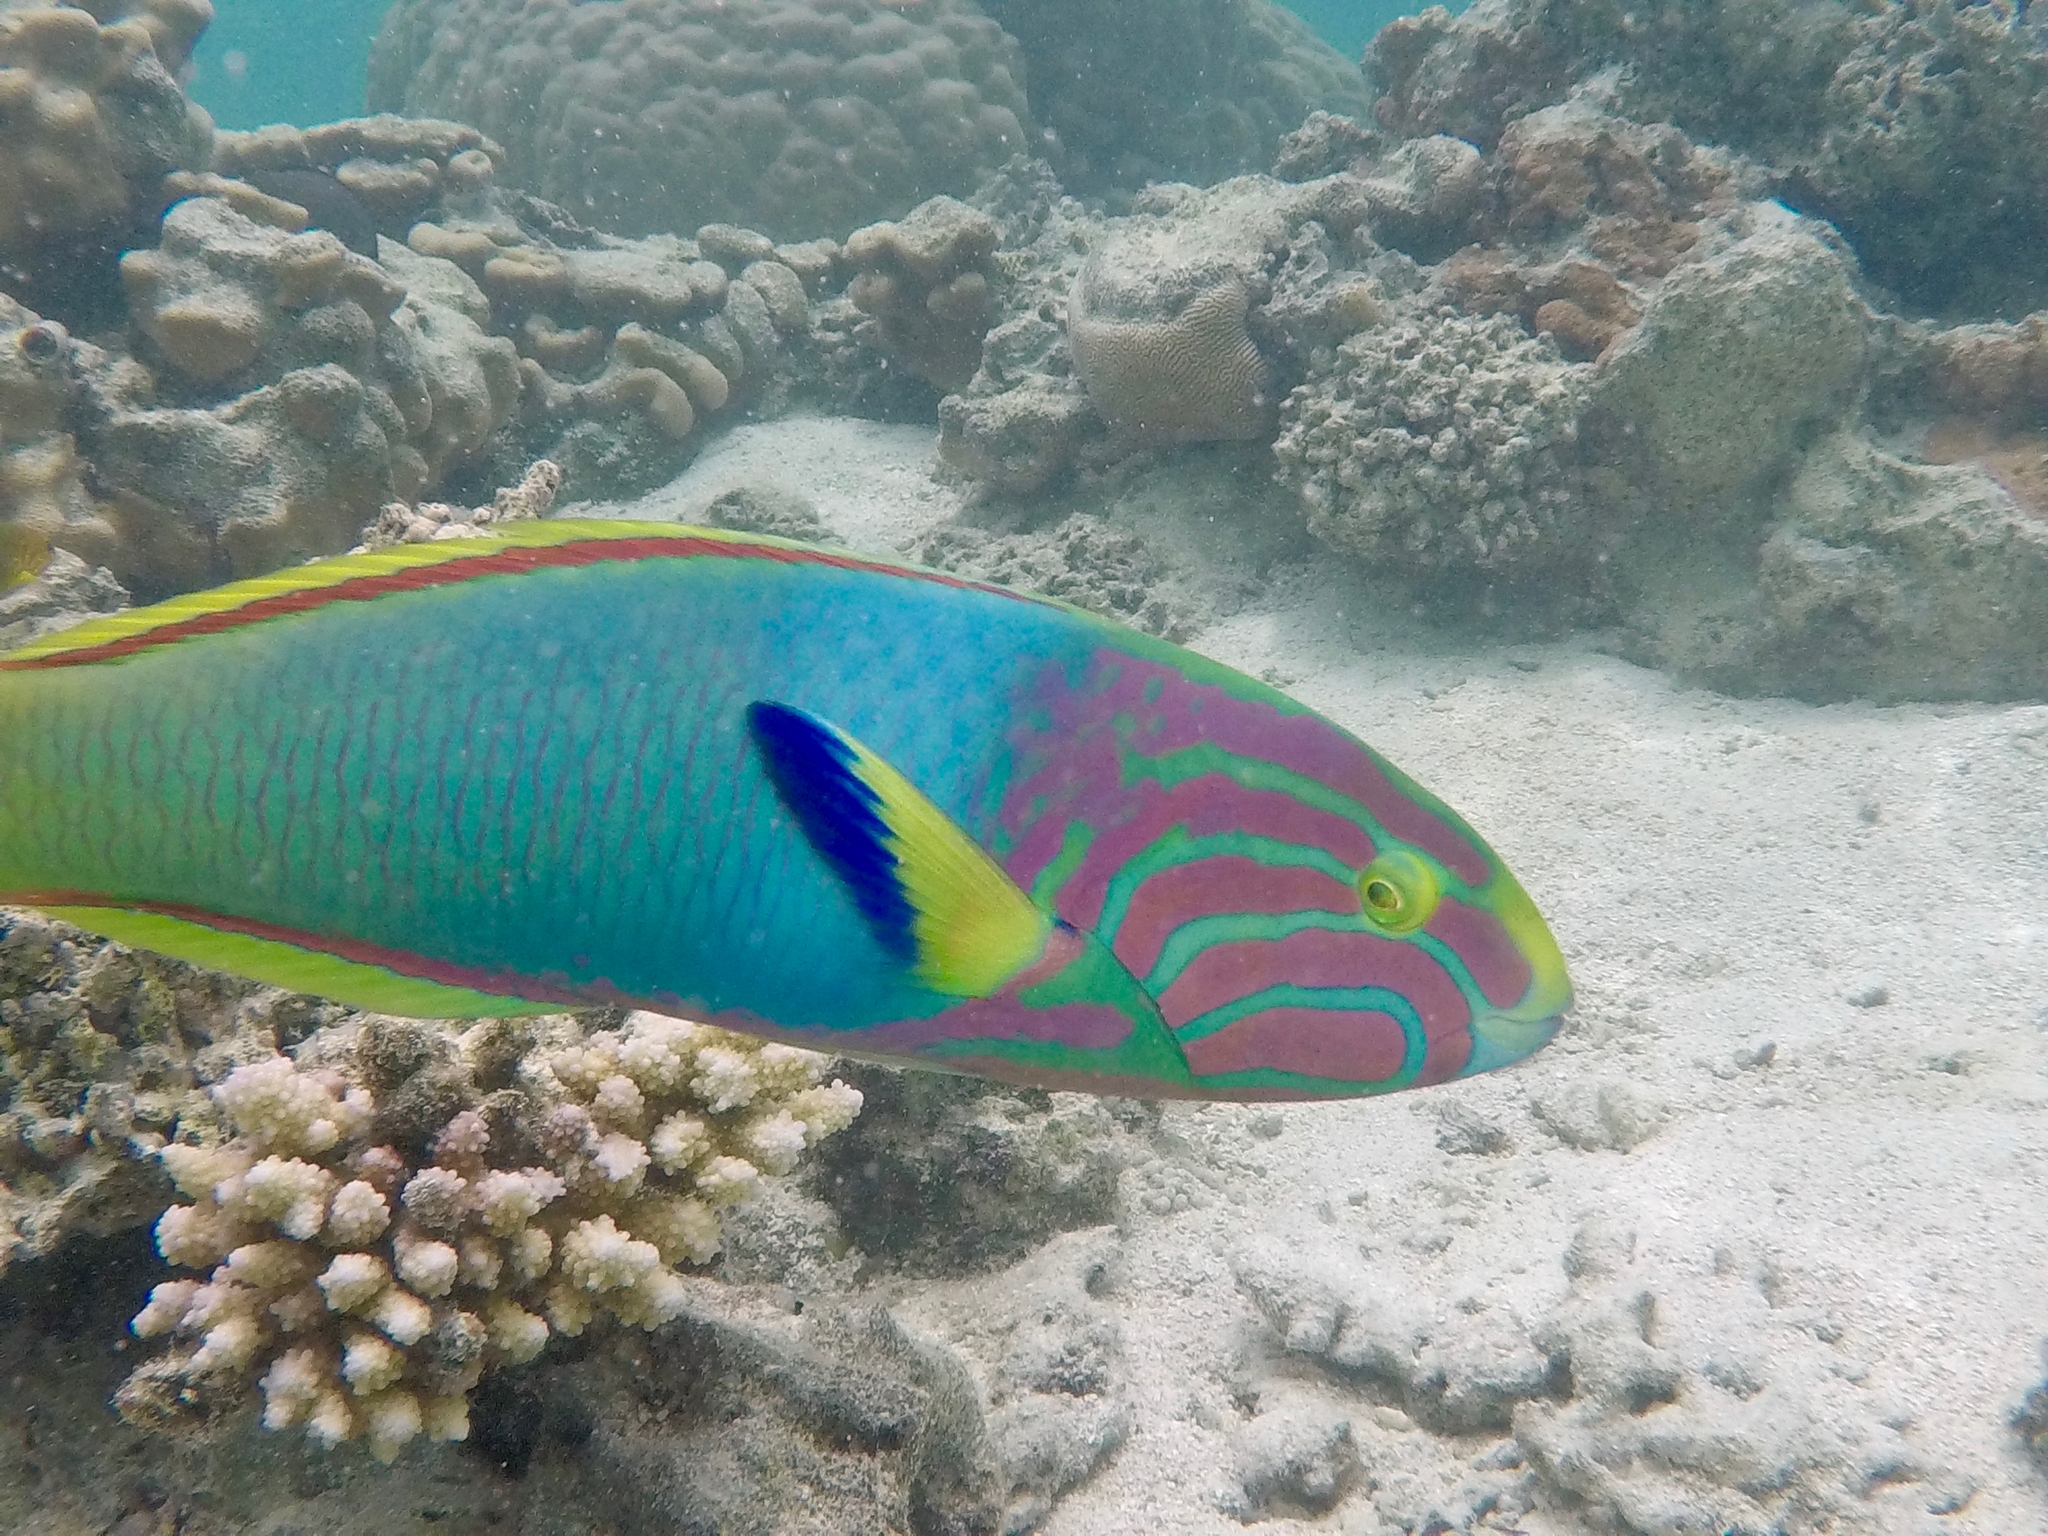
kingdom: Animalia
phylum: Chordata
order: Perciformes
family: Labridae
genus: Thalassoma
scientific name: Thalassoma lutescens
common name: Green moon wrasse
